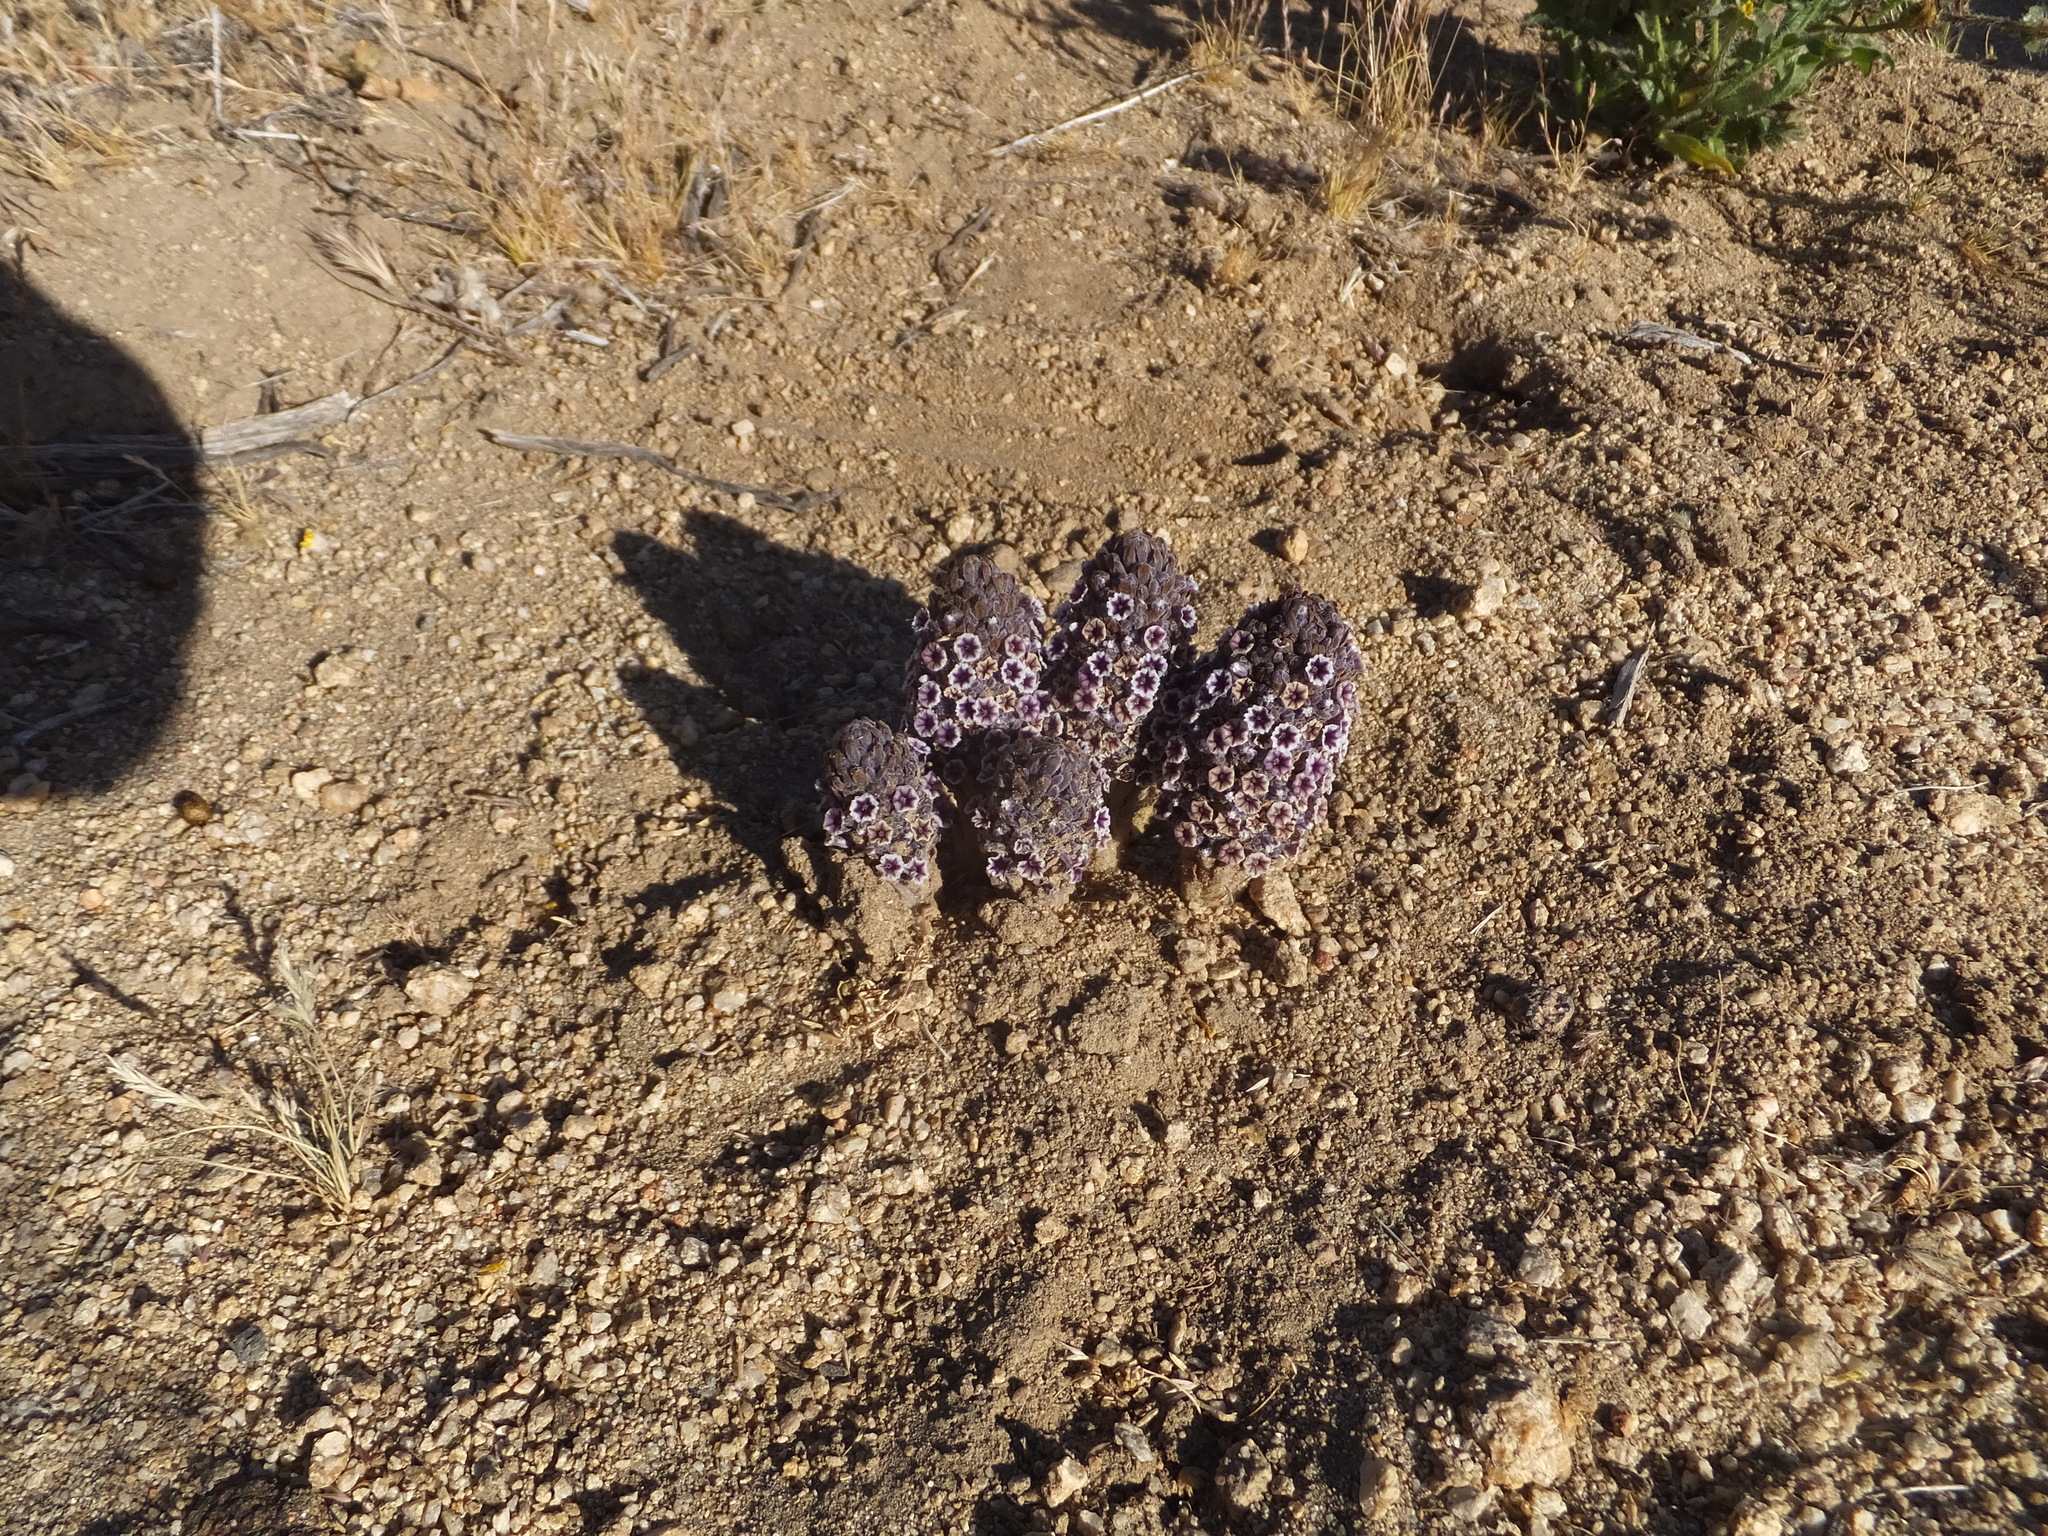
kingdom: Plantae
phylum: Tracheophyta
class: Magnoliopsida
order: Boraginales
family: Lennoaceae
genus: Pholisma
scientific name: Pholisma arenarium
